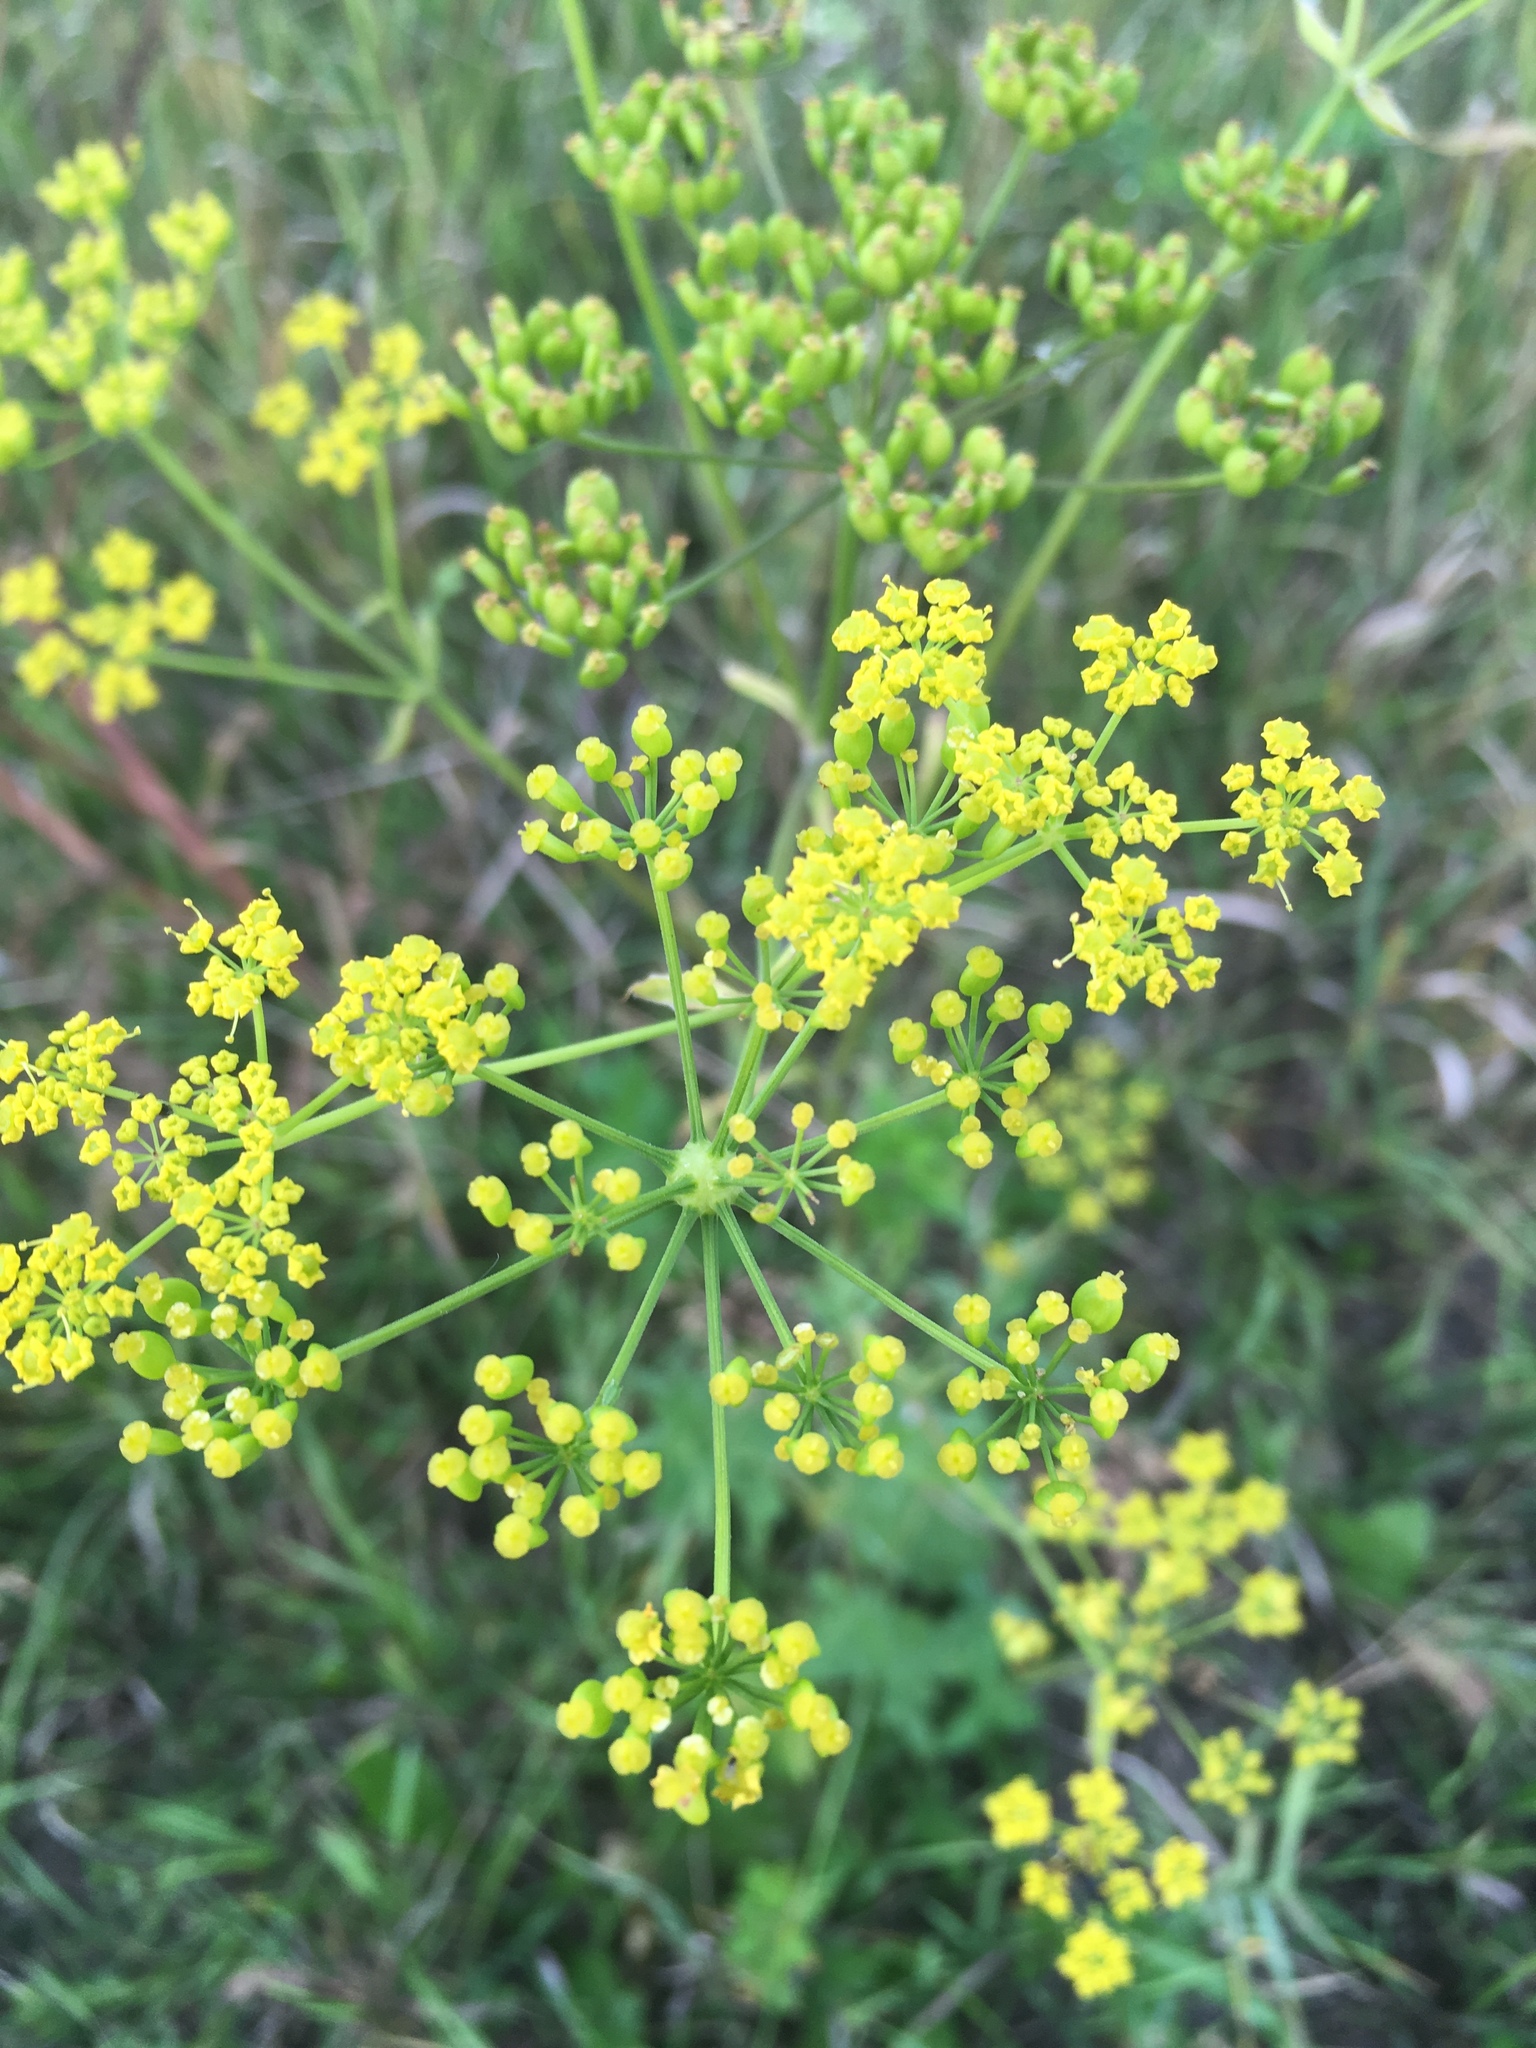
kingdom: Plantae
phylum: Tracheophyta
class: Magnoliopsida
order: Apiales
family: Apiaceae
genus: Pastinaca
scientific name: Pastinaca sativa
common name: Wild parsnip
